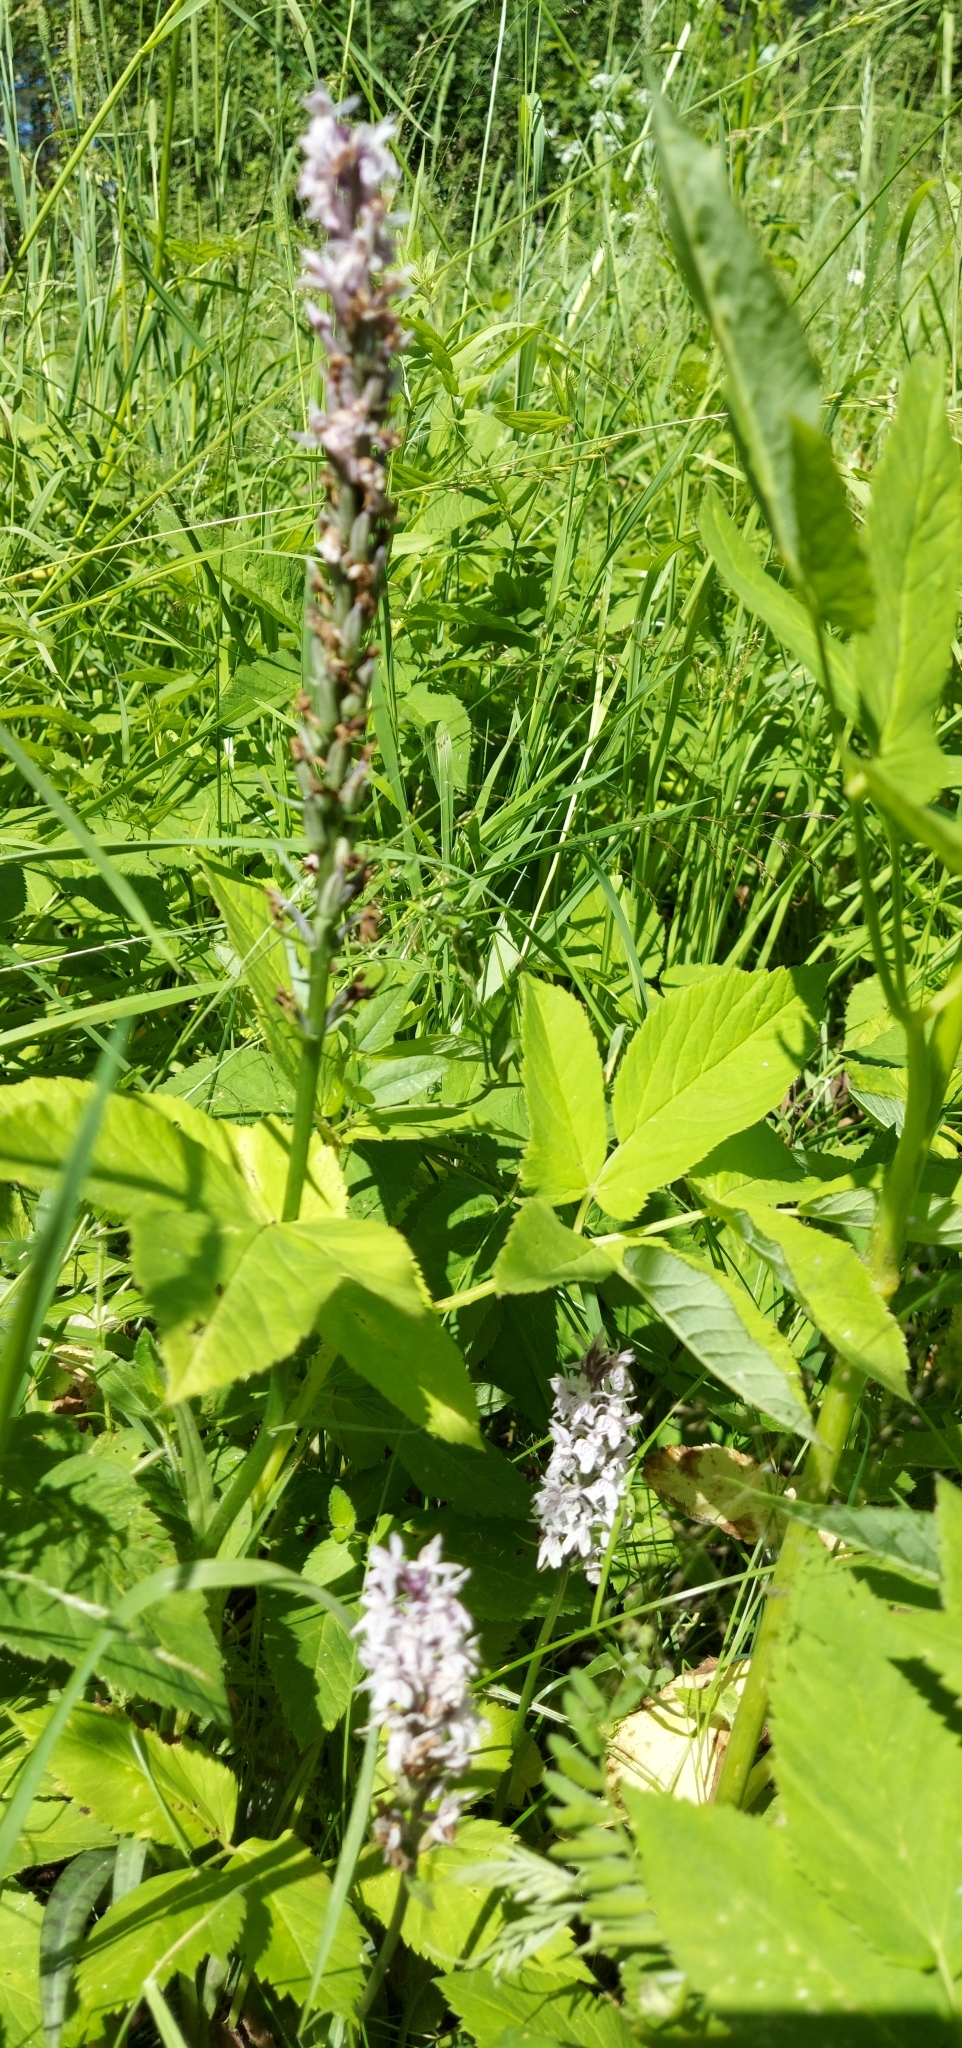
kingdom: Plantae
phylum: Tracheophyta
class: Liliopsida
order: Asparagales
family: Orchidaceae
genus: Dactylorhiza
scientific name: Dactylorhiza maculata
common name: Heath spotted-orchid
